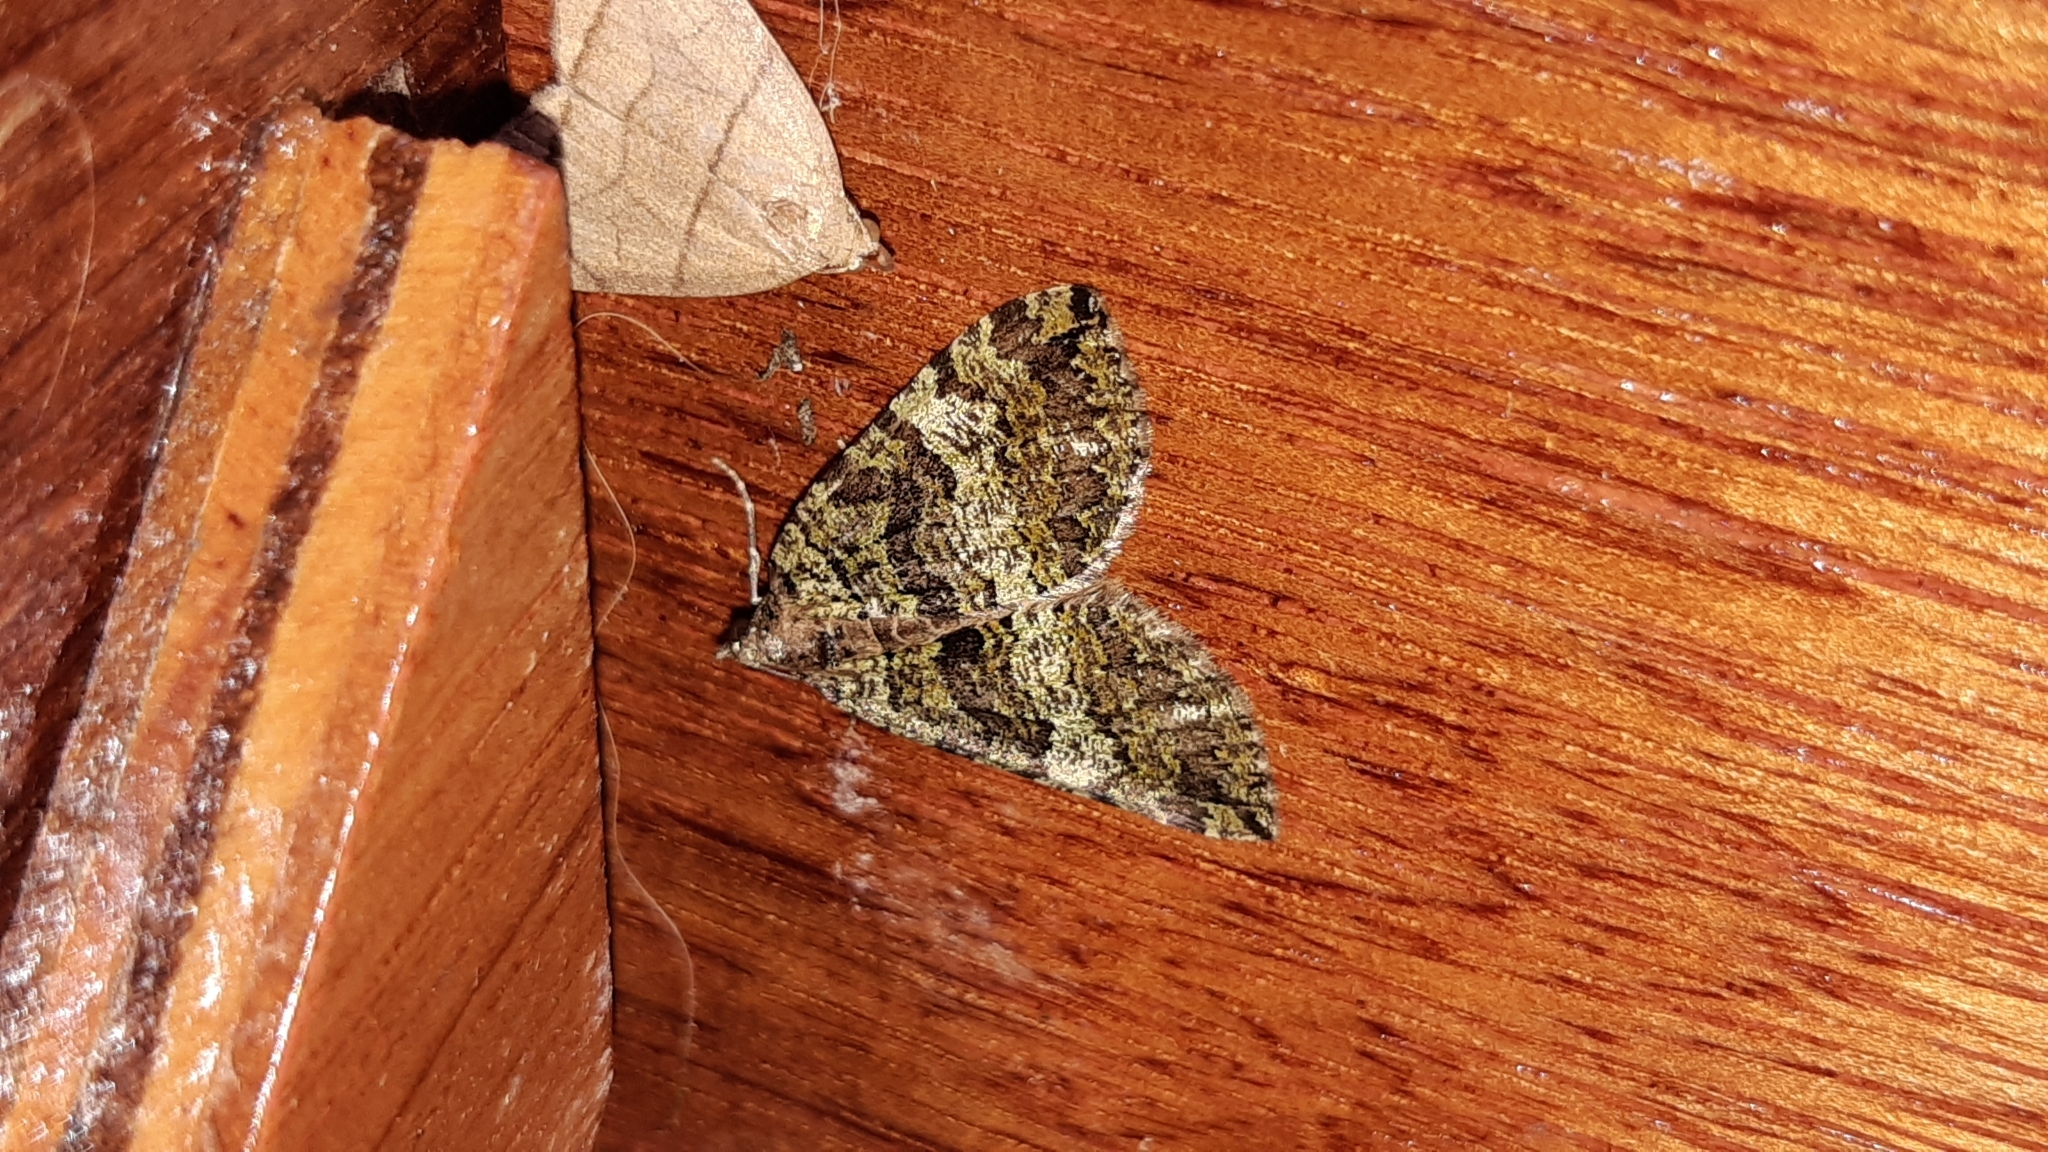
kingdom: Animalia
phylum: Arthropoda
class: Insecta
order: Lepidoptera
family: Geometridae
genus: Hydriomena
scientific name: Hydriomena furcata
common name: July highflyer
